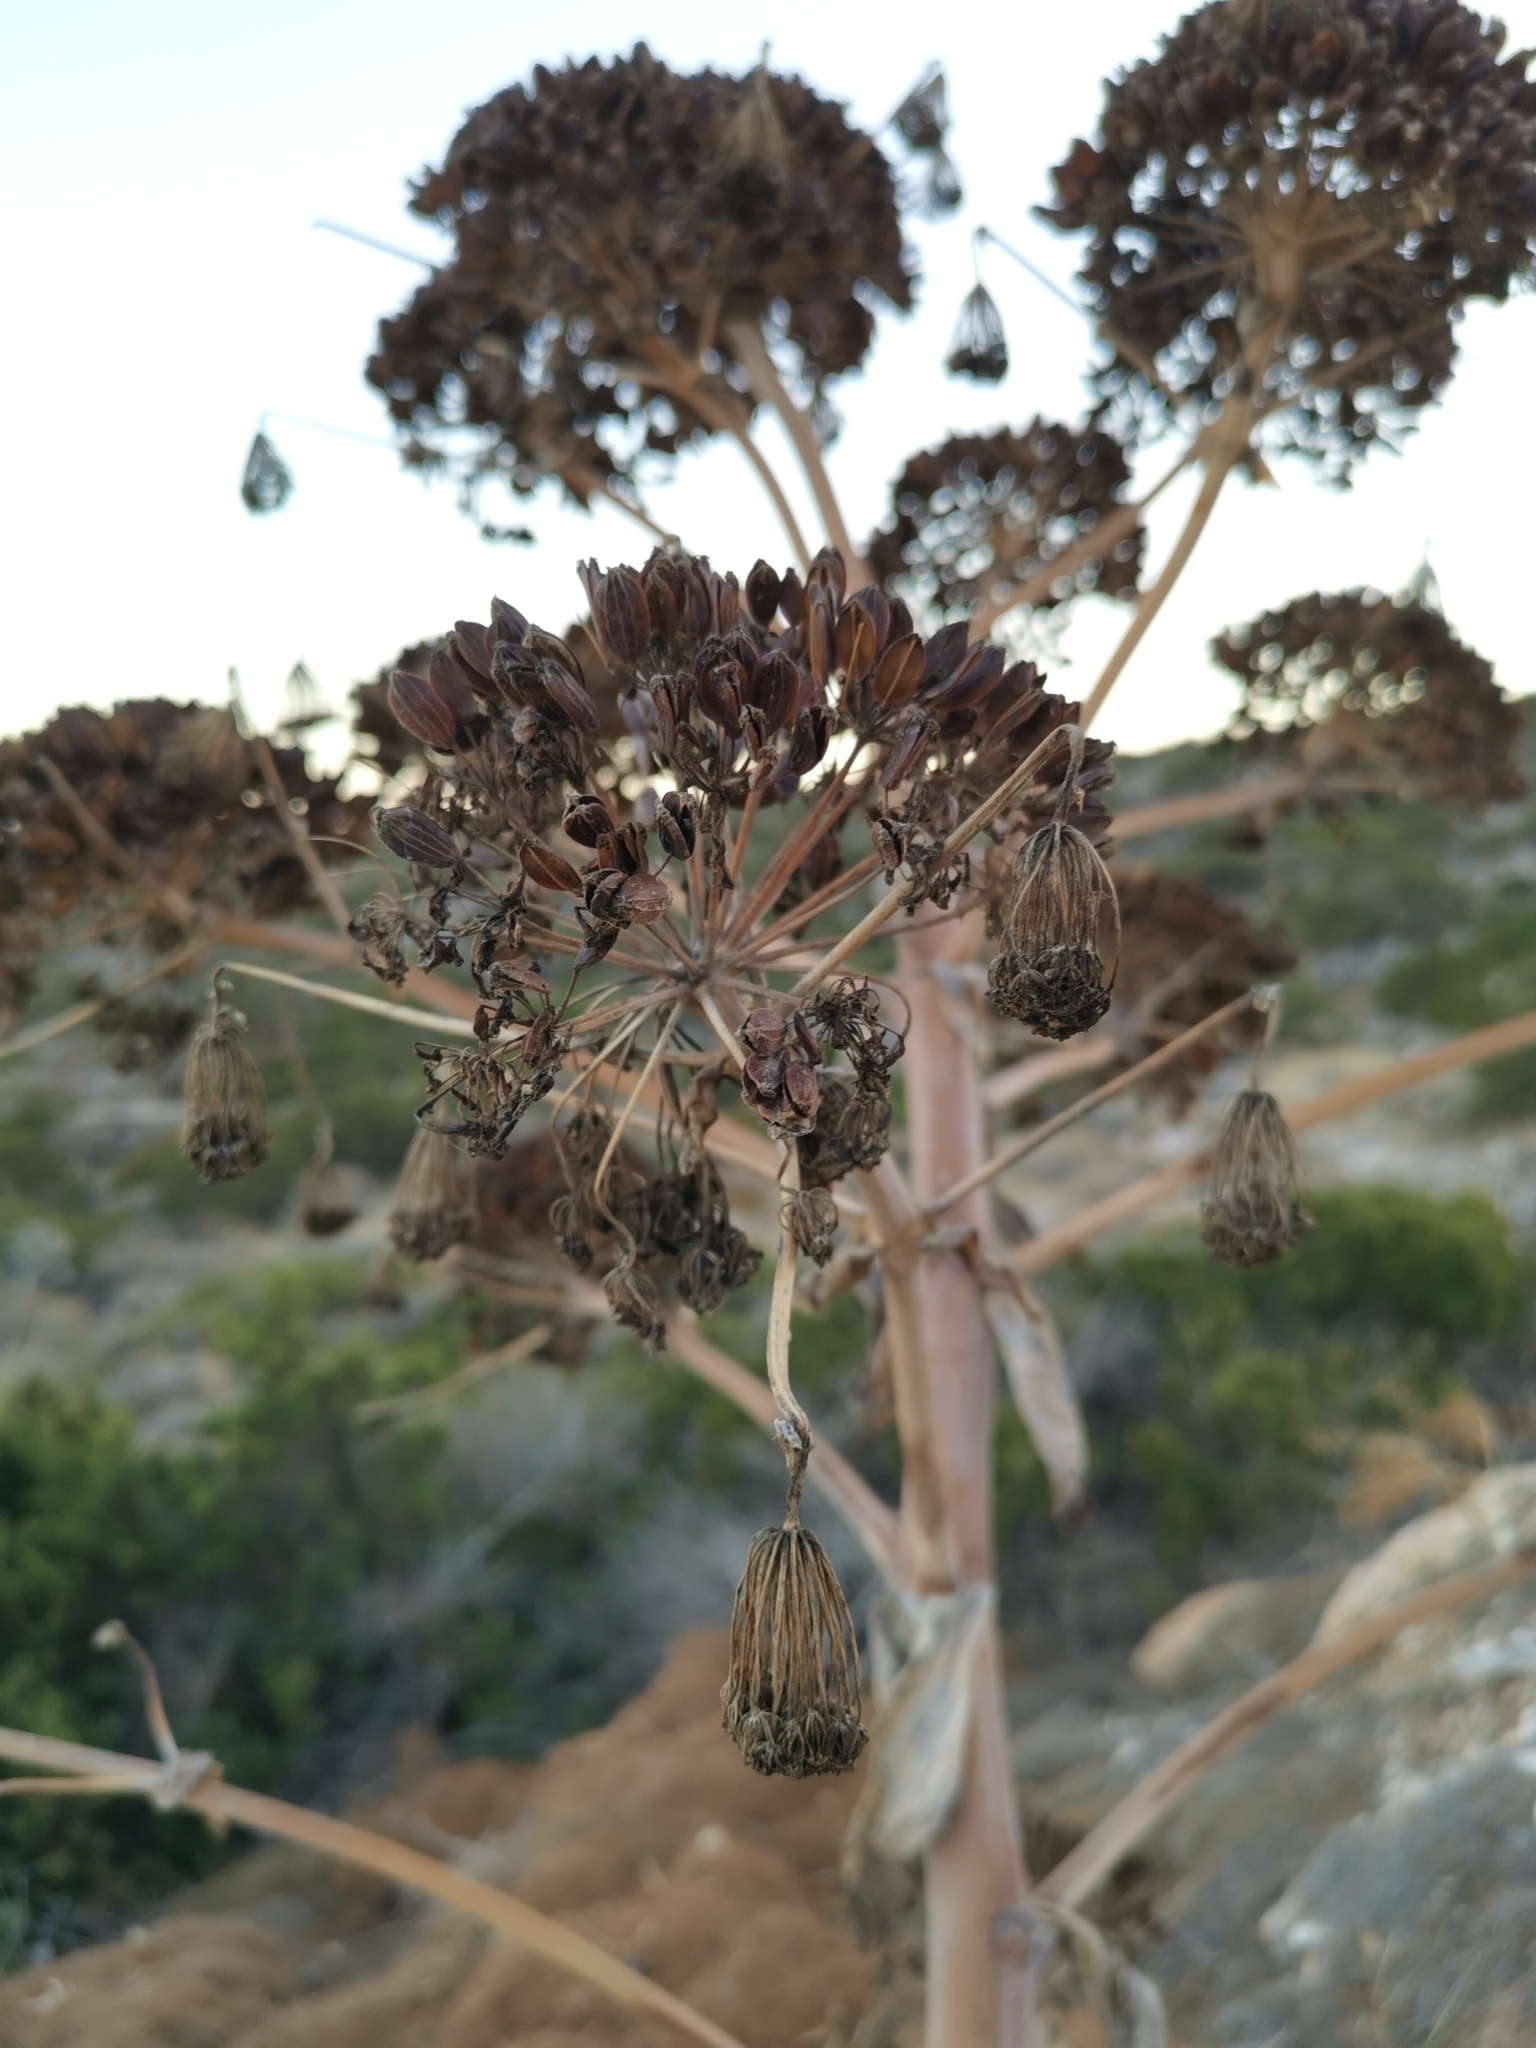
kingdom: Plantae
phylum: Tracheophyta
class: Magnoliopsida
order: Apiales
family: Apiaceae
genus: Ferula
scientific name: Ferula communis
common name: Giant fennel
